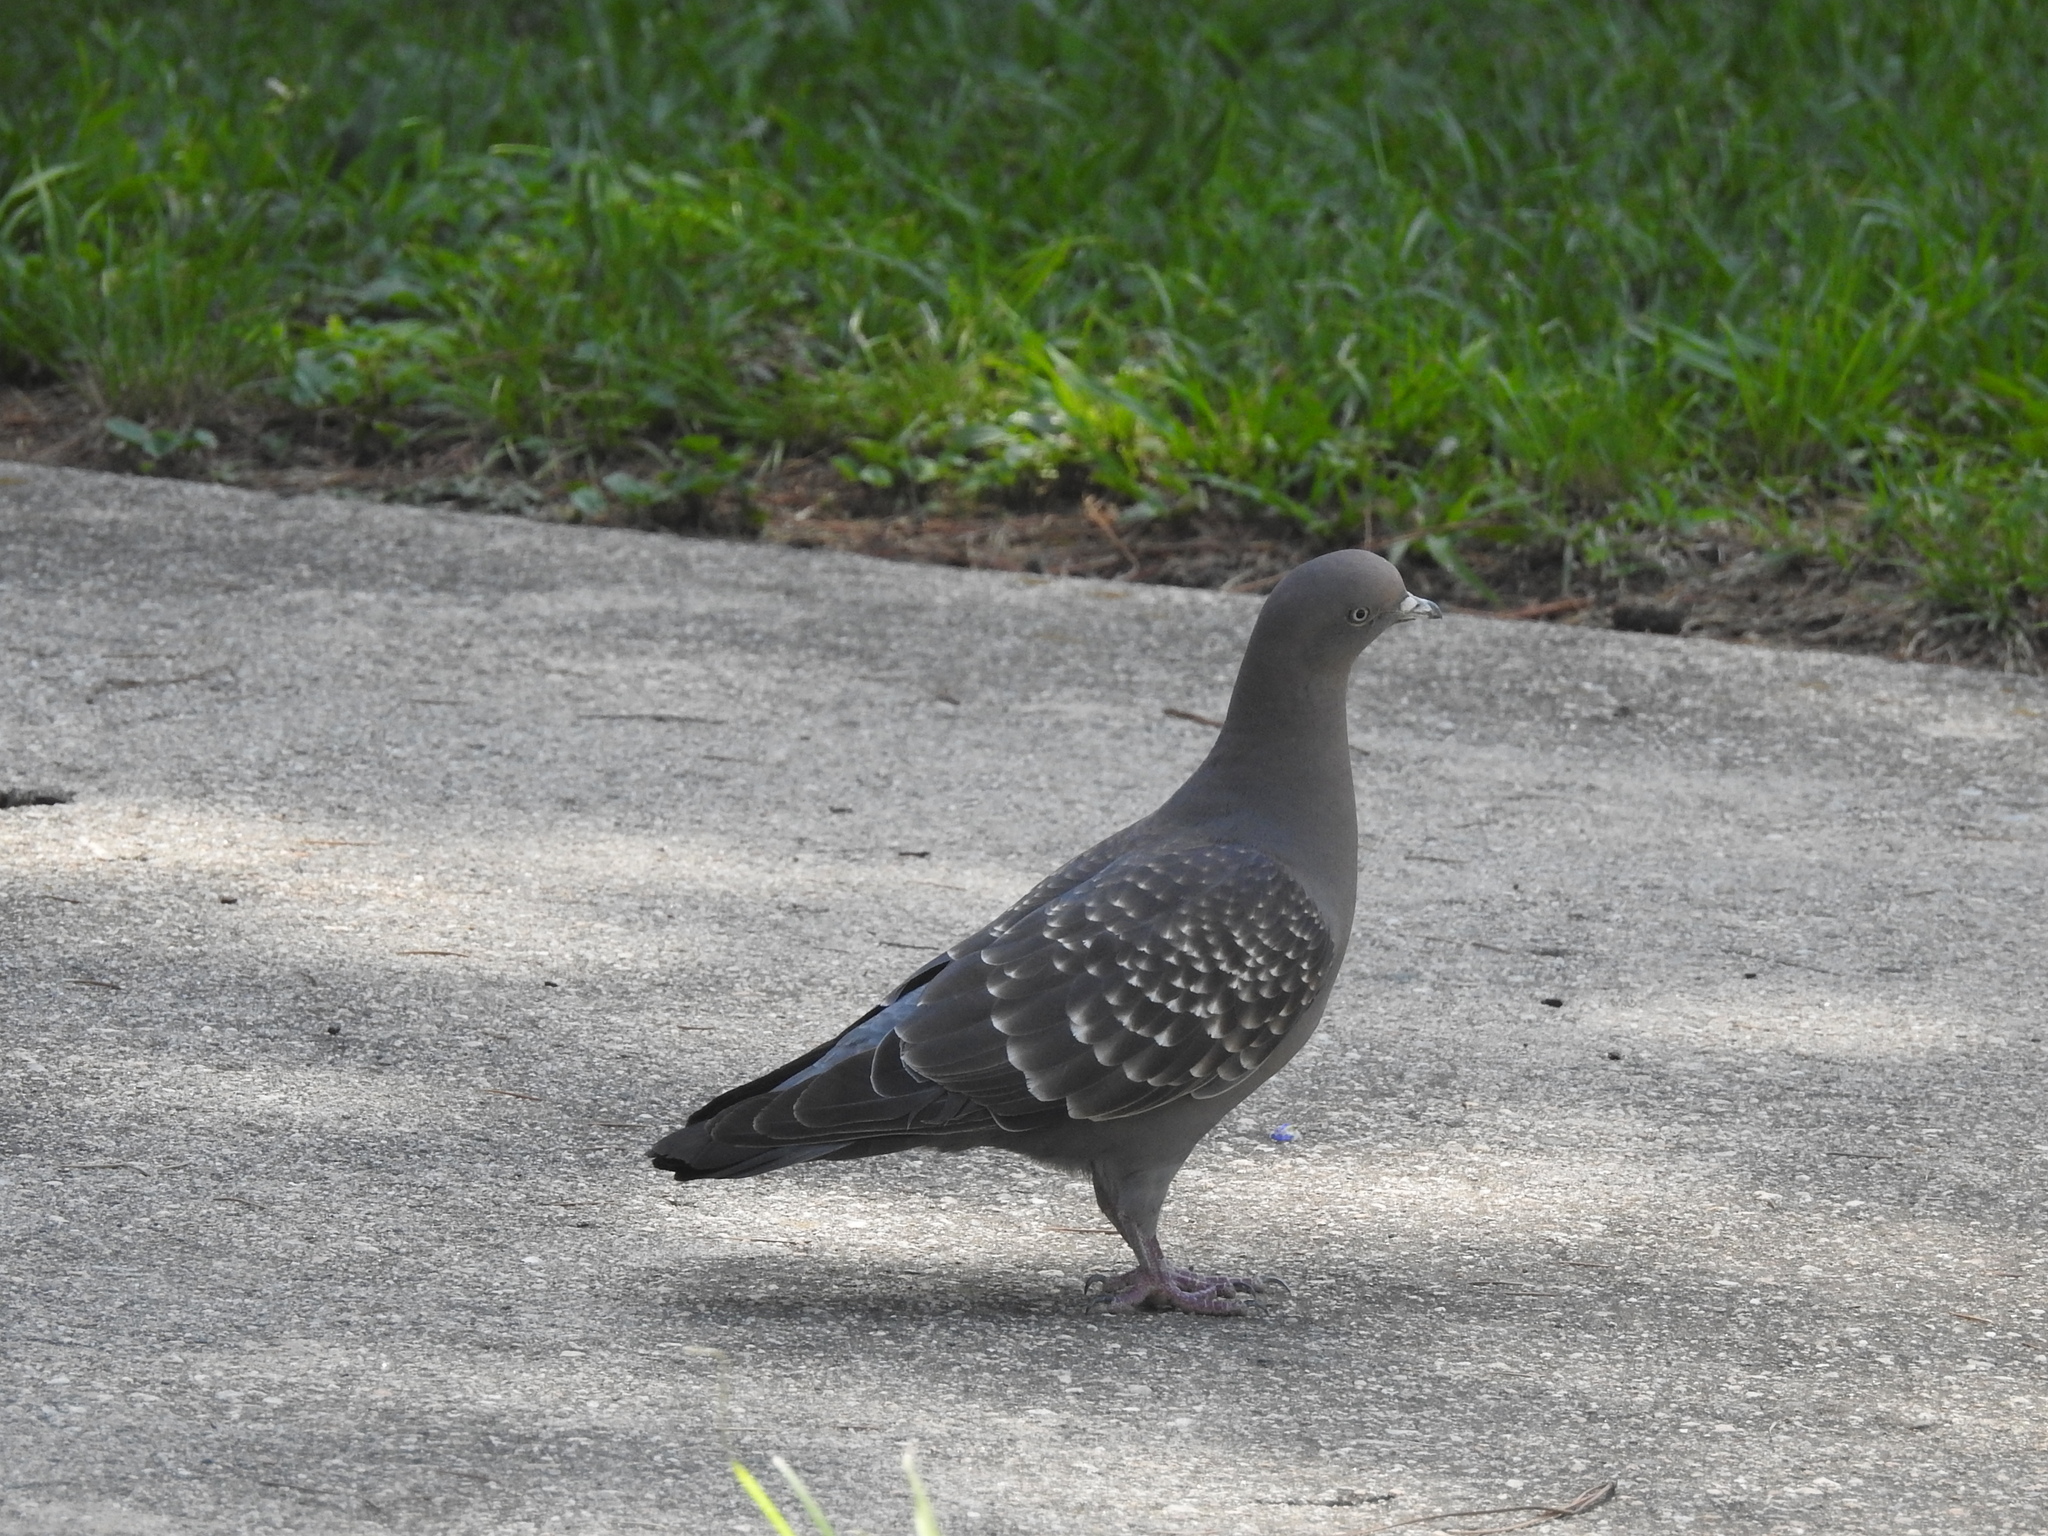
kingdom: Animalia
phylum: Chordata
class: Aves
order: Columbiformes
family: Columbidae
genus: Patagioenas
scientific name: Patagioenas maculosa
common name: Spot-winged pigeon
